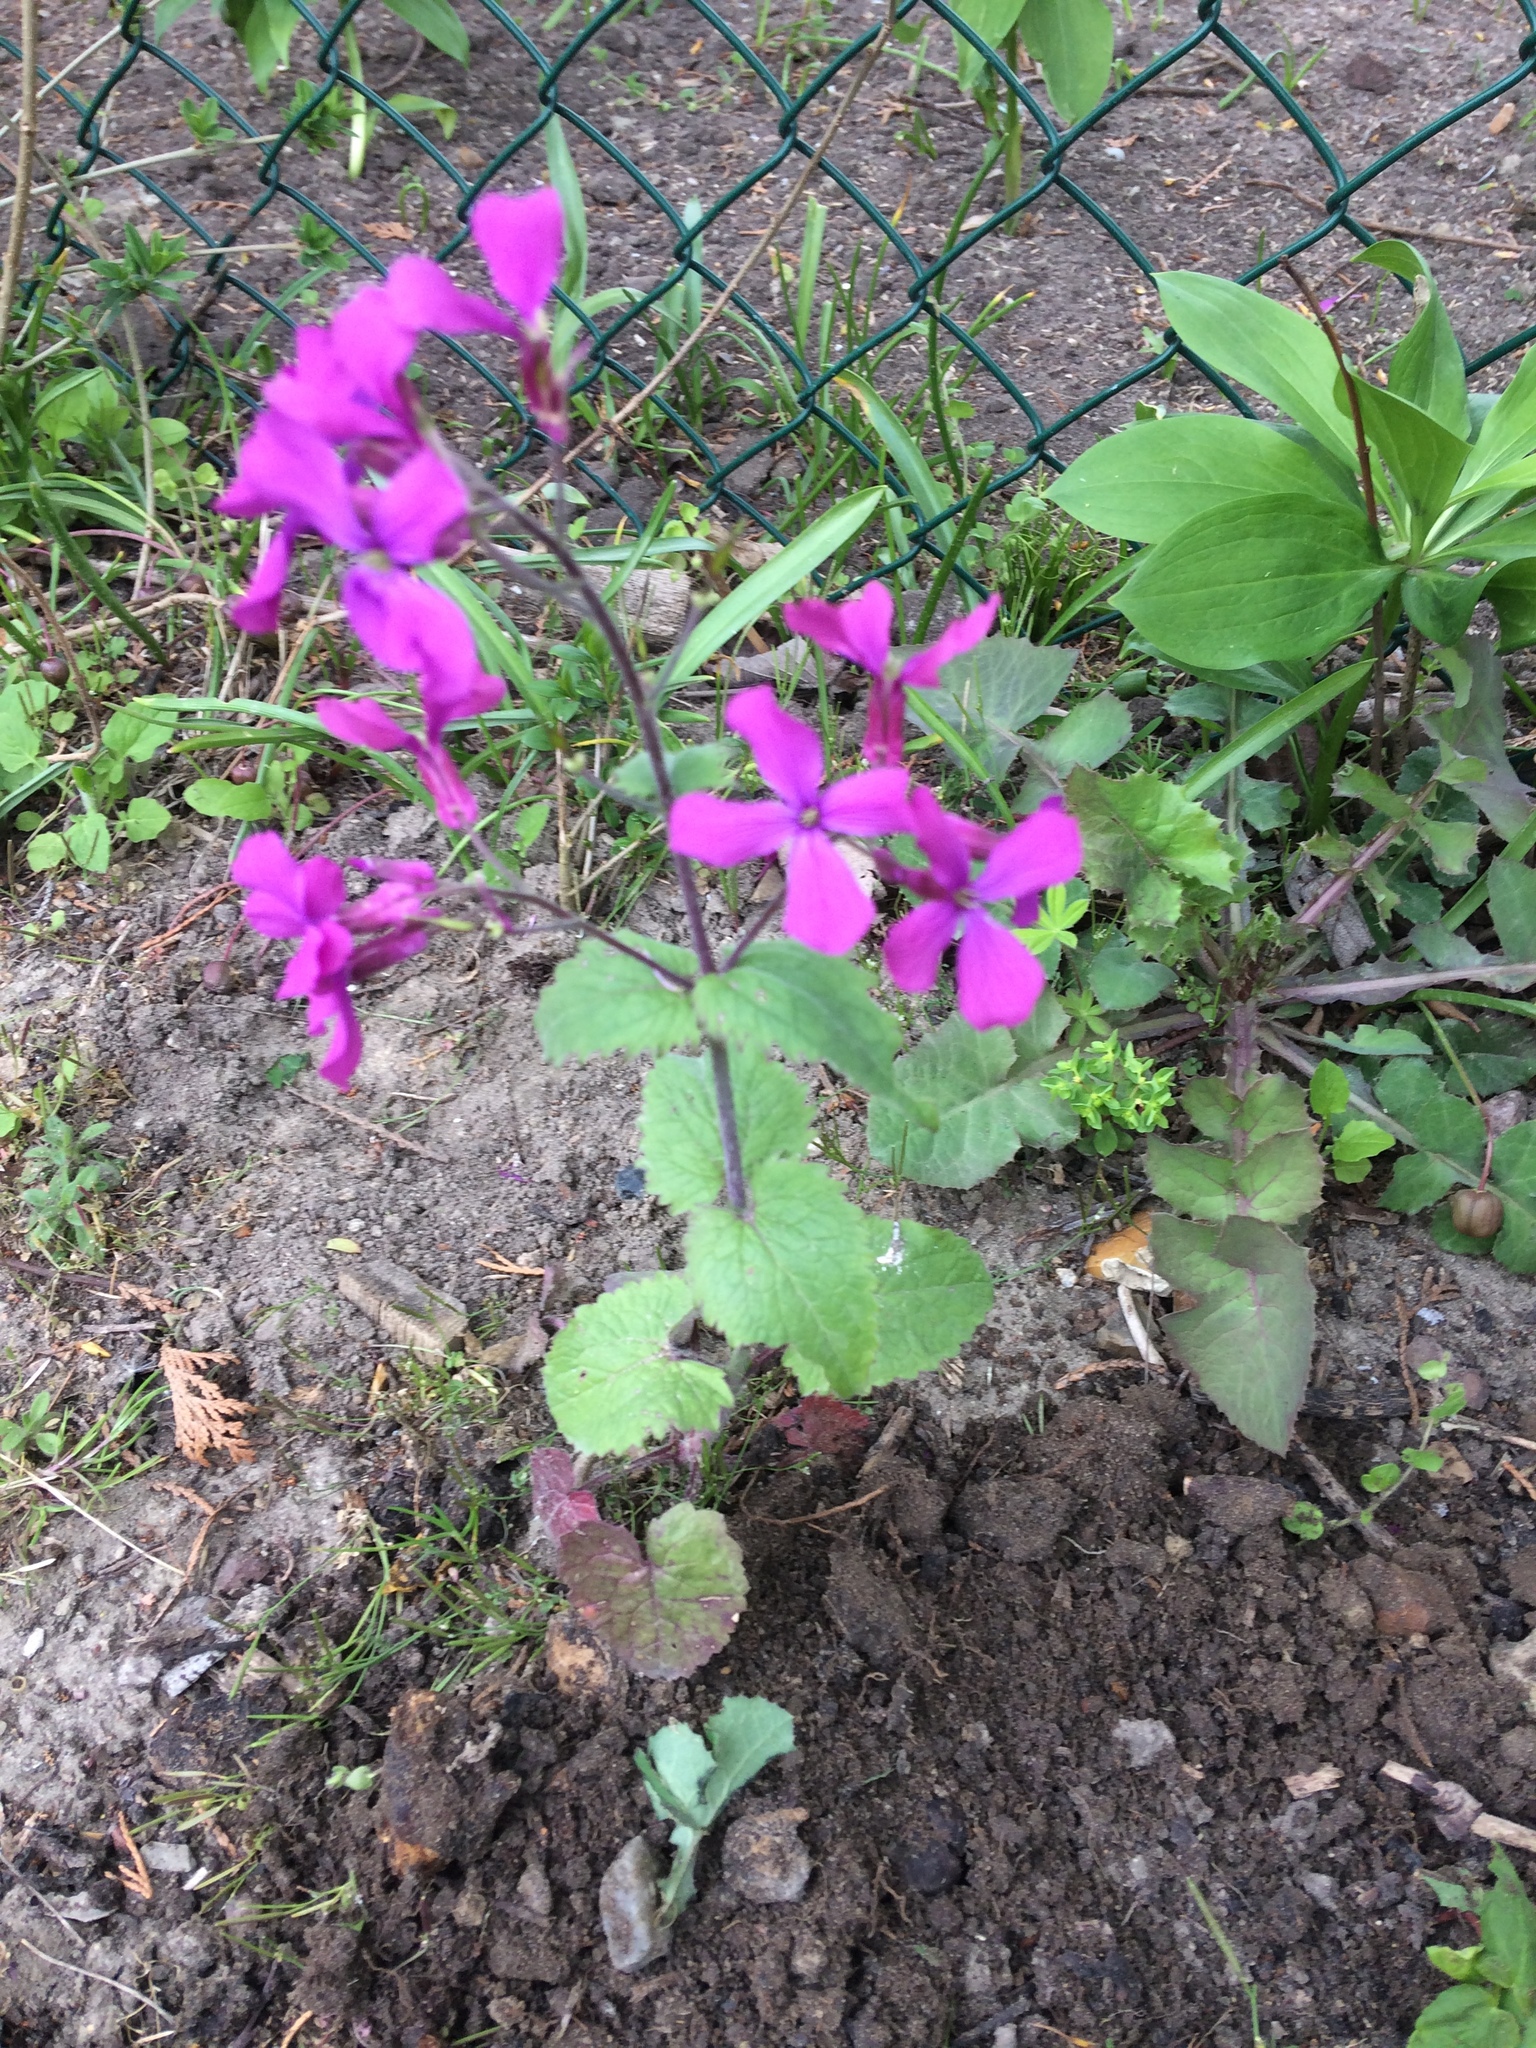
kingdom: Plantae
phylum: Tracheophyta
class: Magnoliopsida
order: Brassicales
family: Brassicaceae
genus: Lunaria
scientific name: Lunaria annua
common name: Honesty
